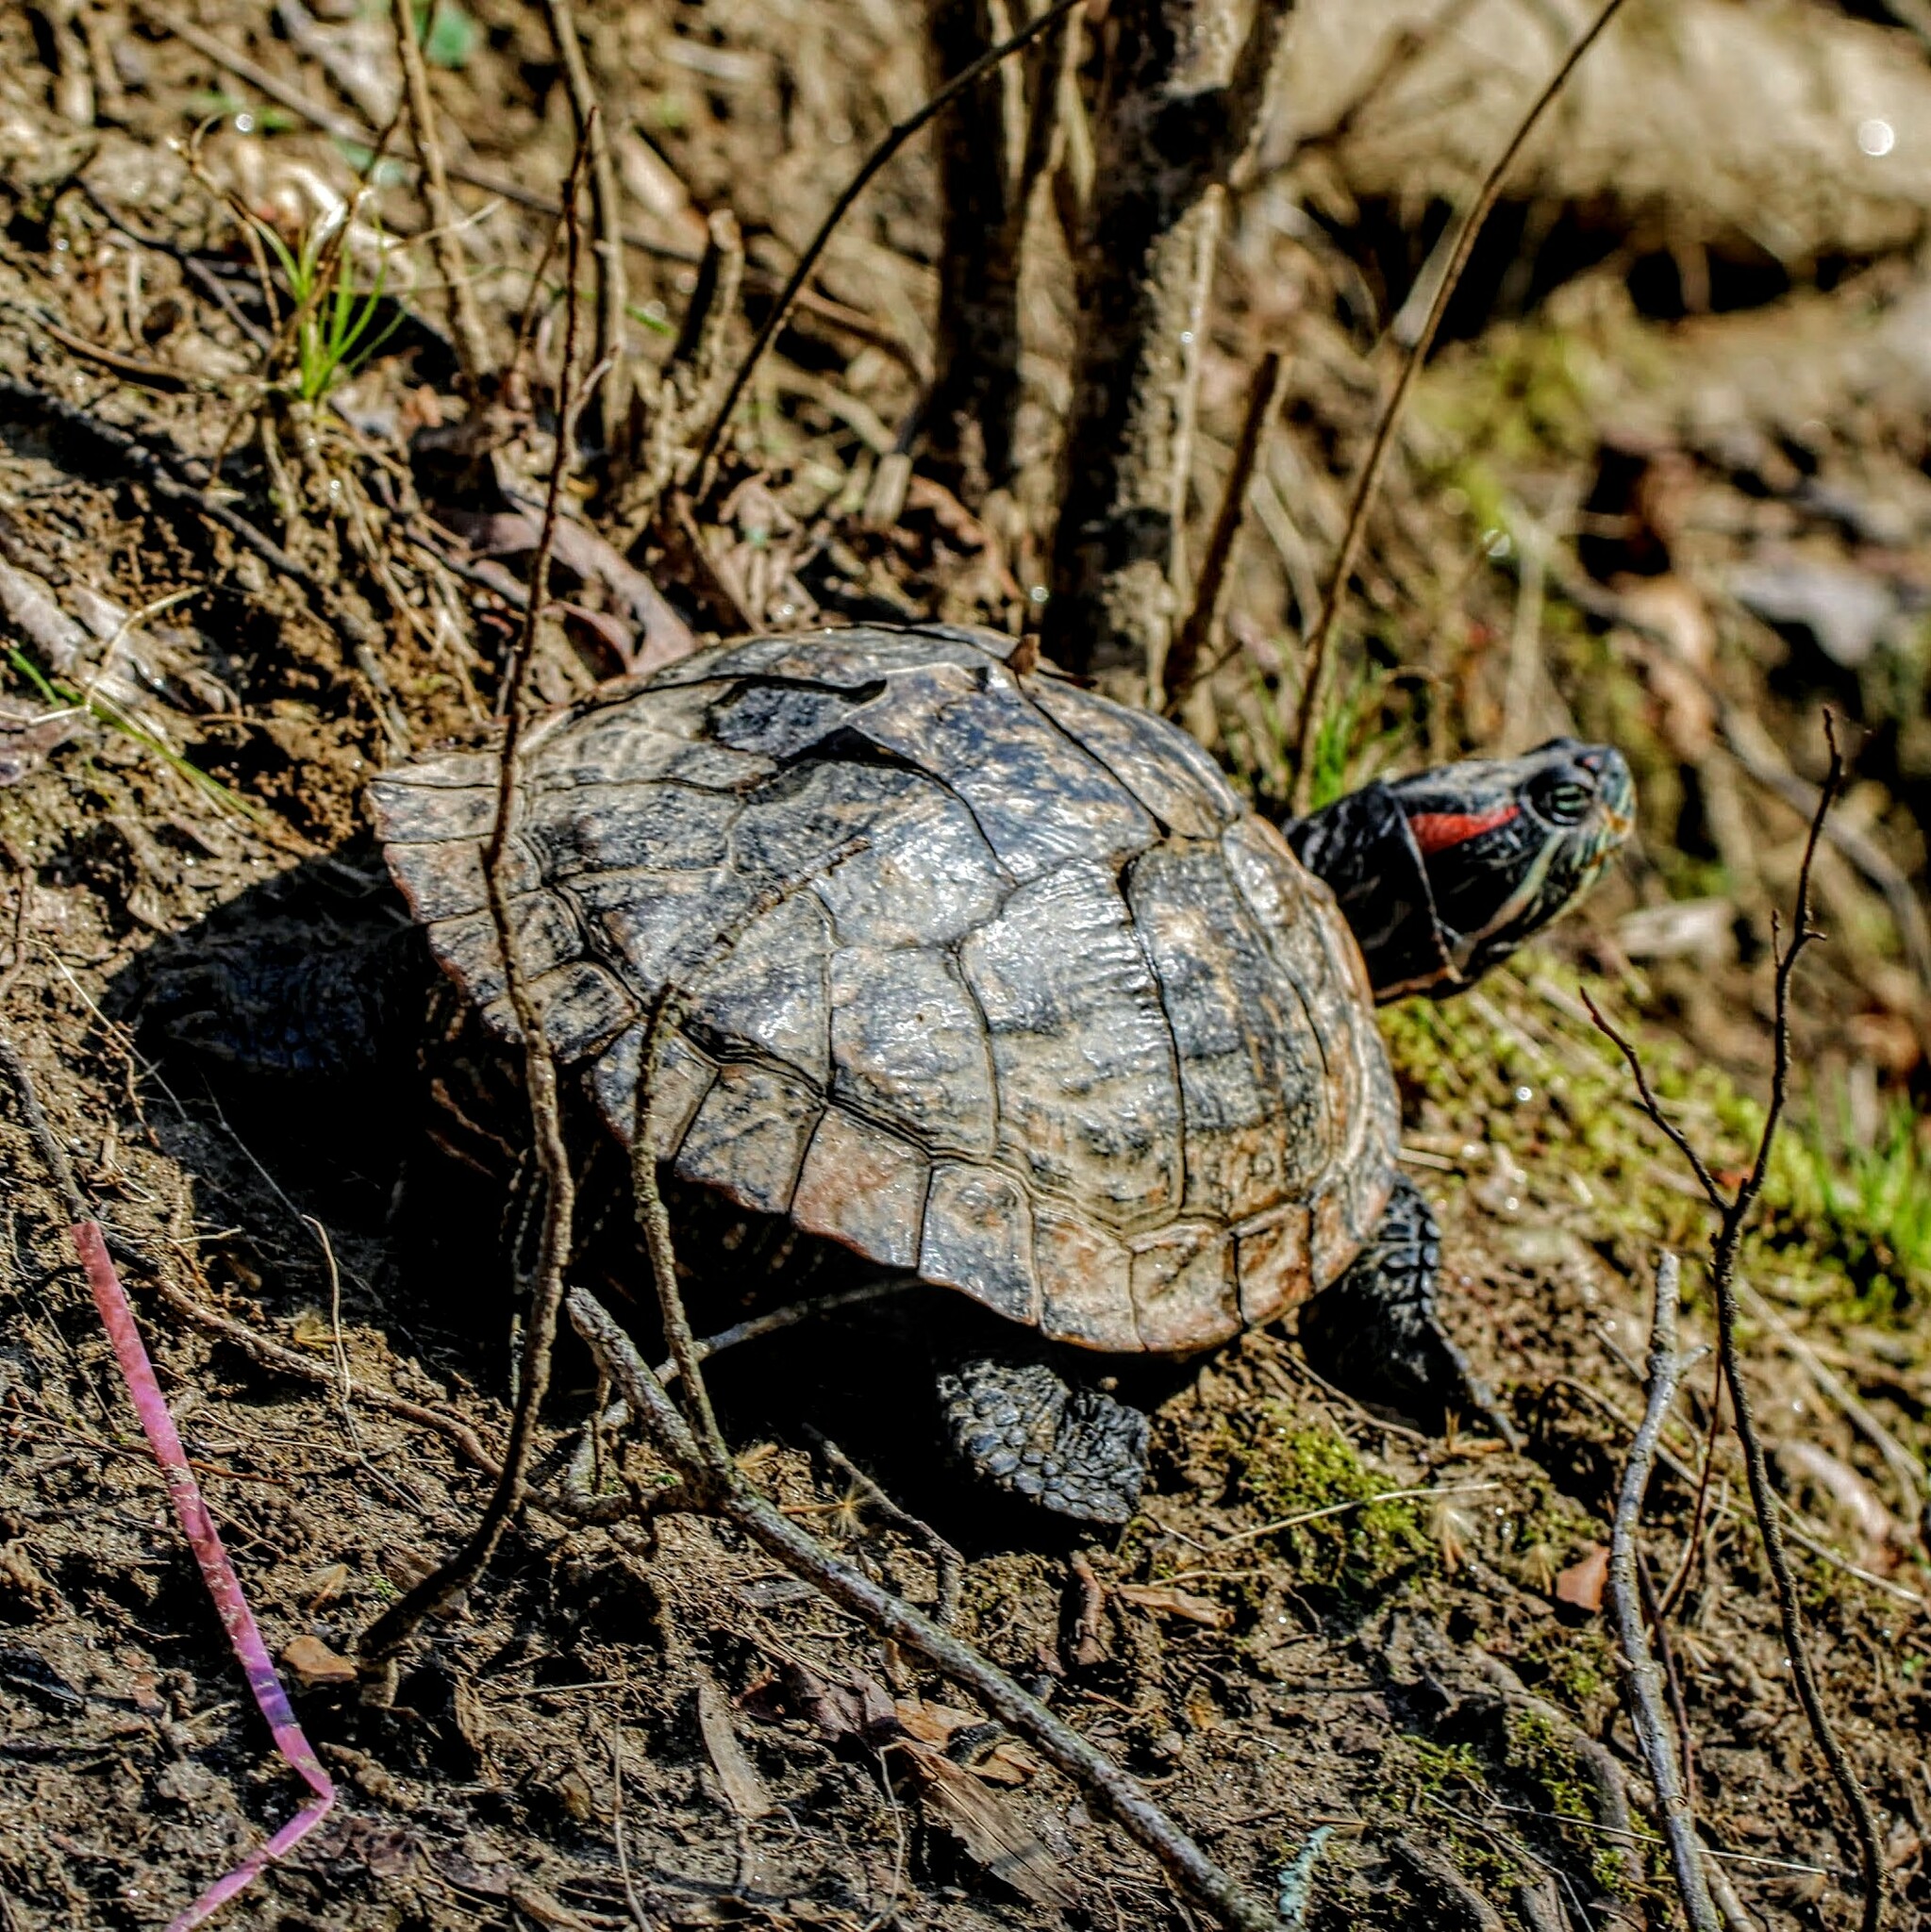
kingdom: Animalia
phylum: Chordata
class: Testudines
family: Emydidae
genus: Trachemys
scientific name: Trachemys scripta
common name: Slider
